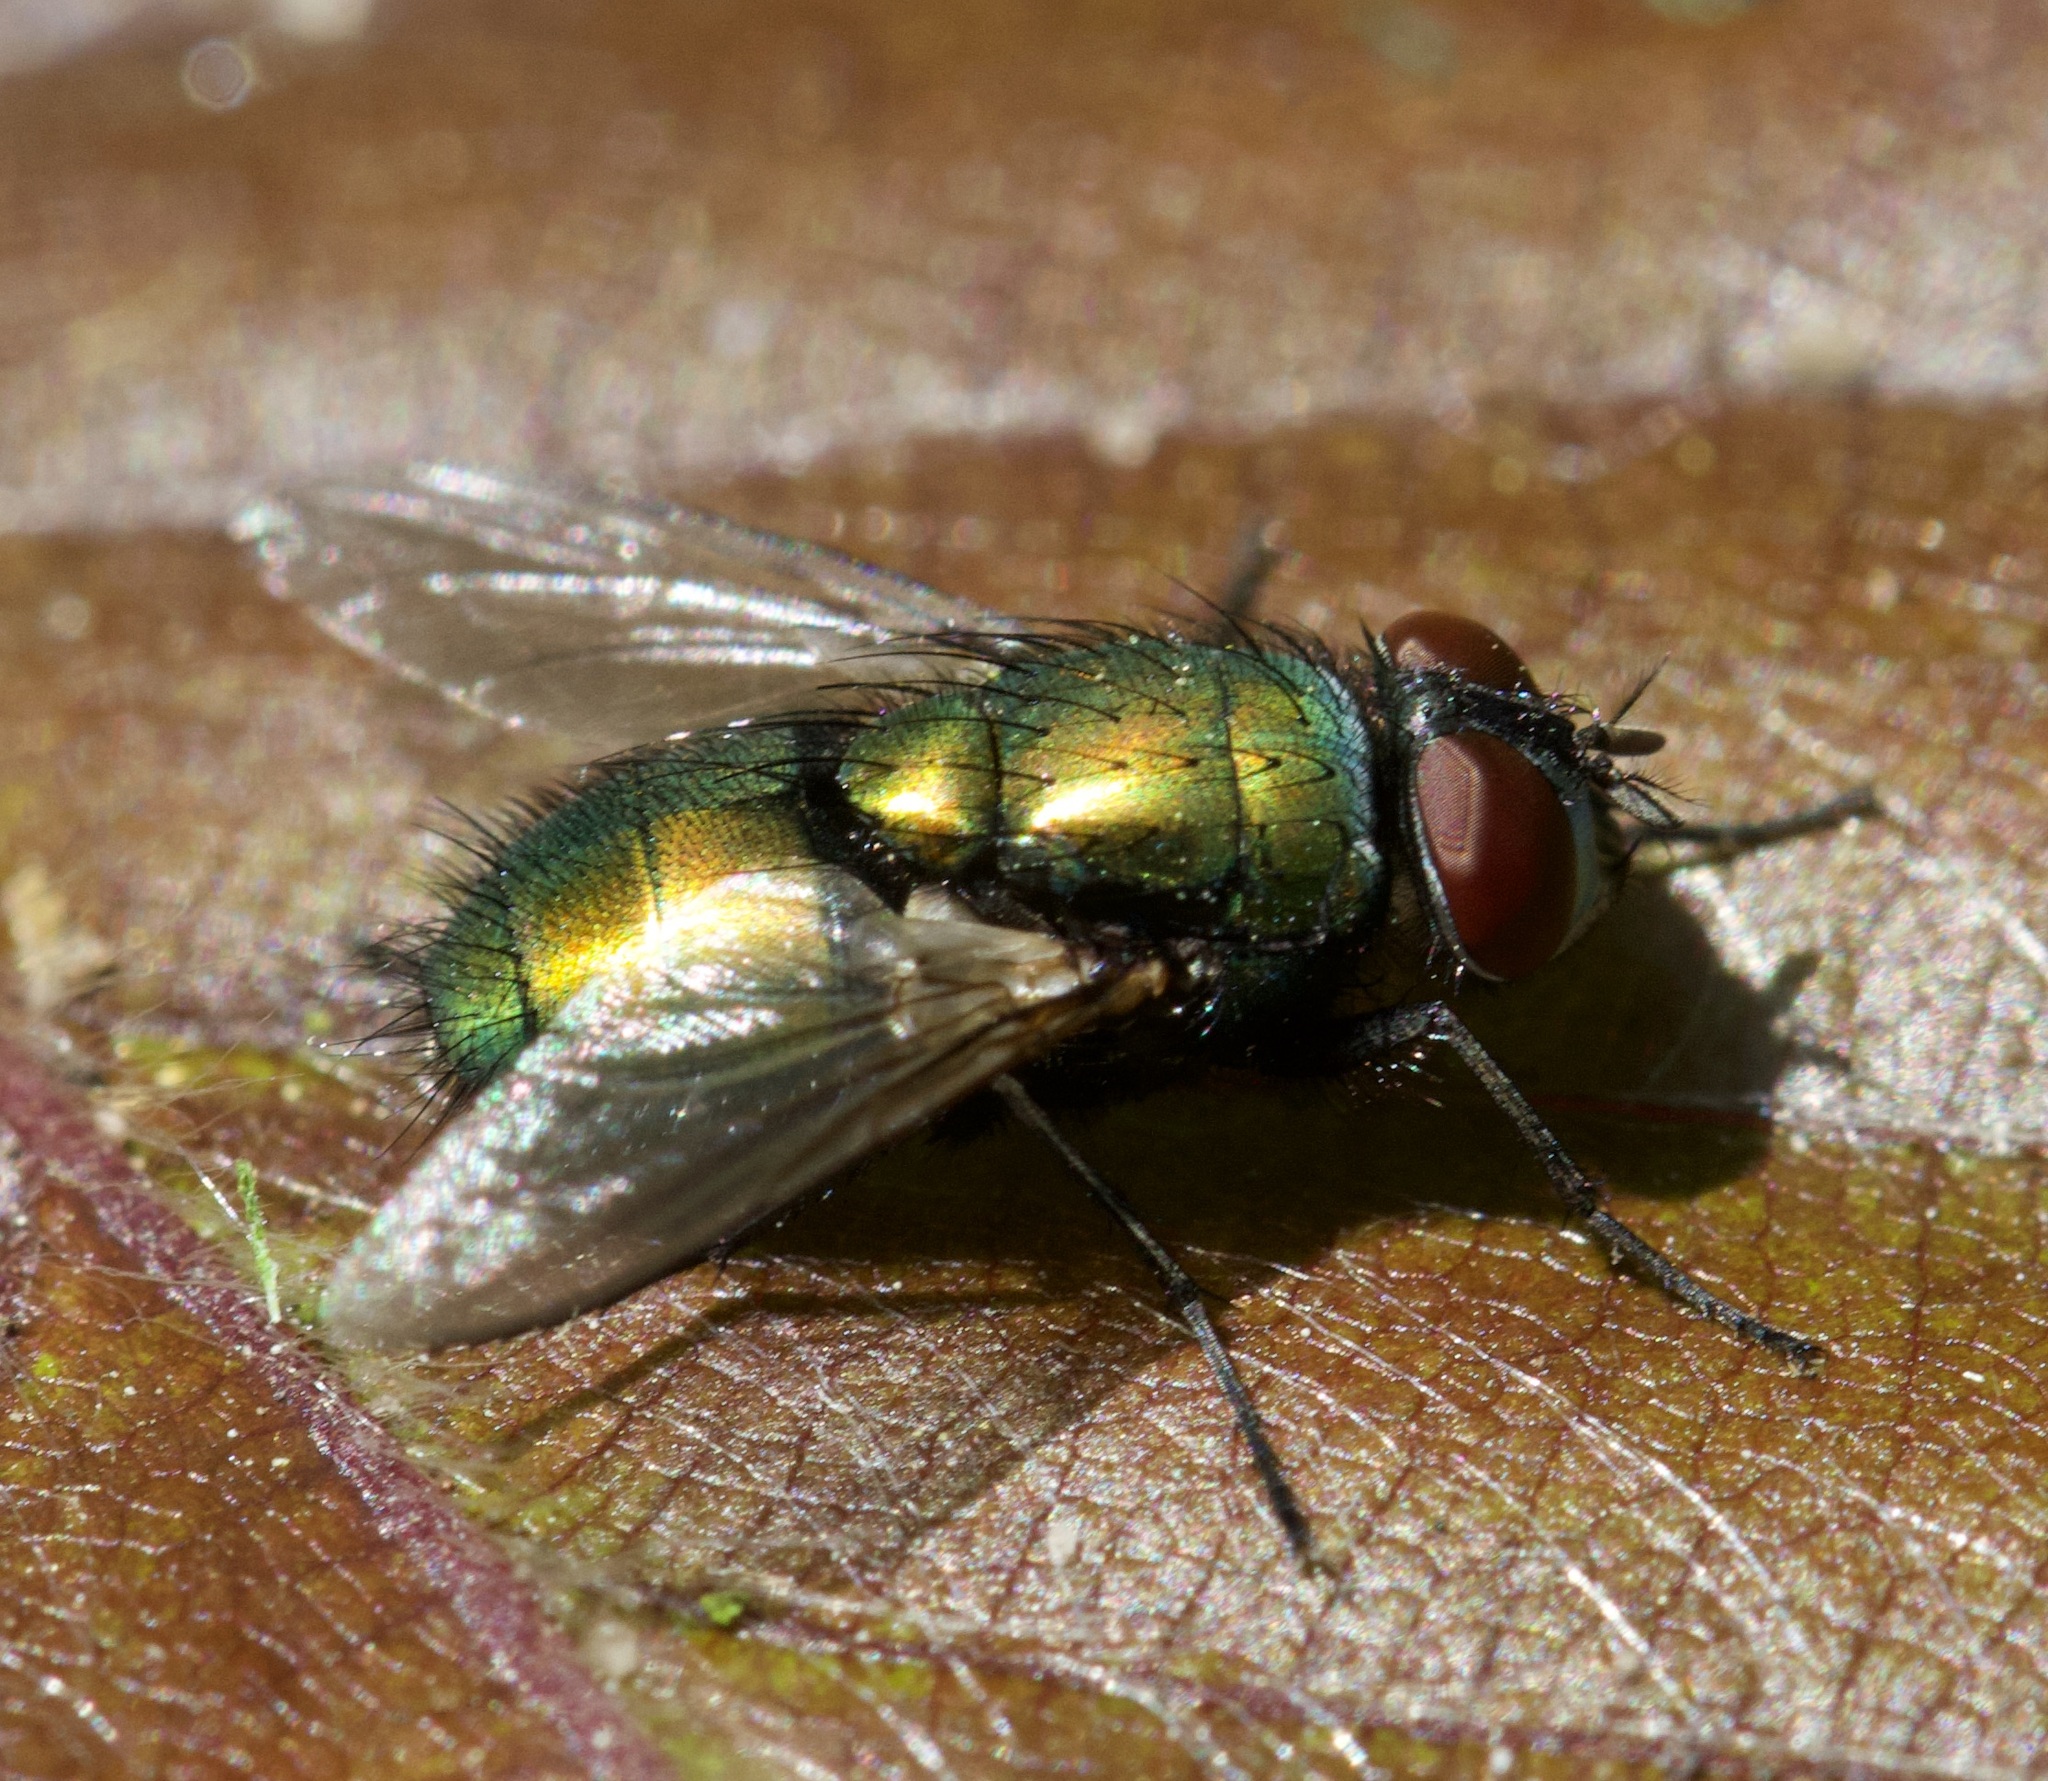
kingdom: Animalia
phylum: Arthropoda
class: Insecta
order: Diptera
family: Calliphoridae
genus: Lucilia
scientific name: Lucilia sericata
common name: Blow fly
